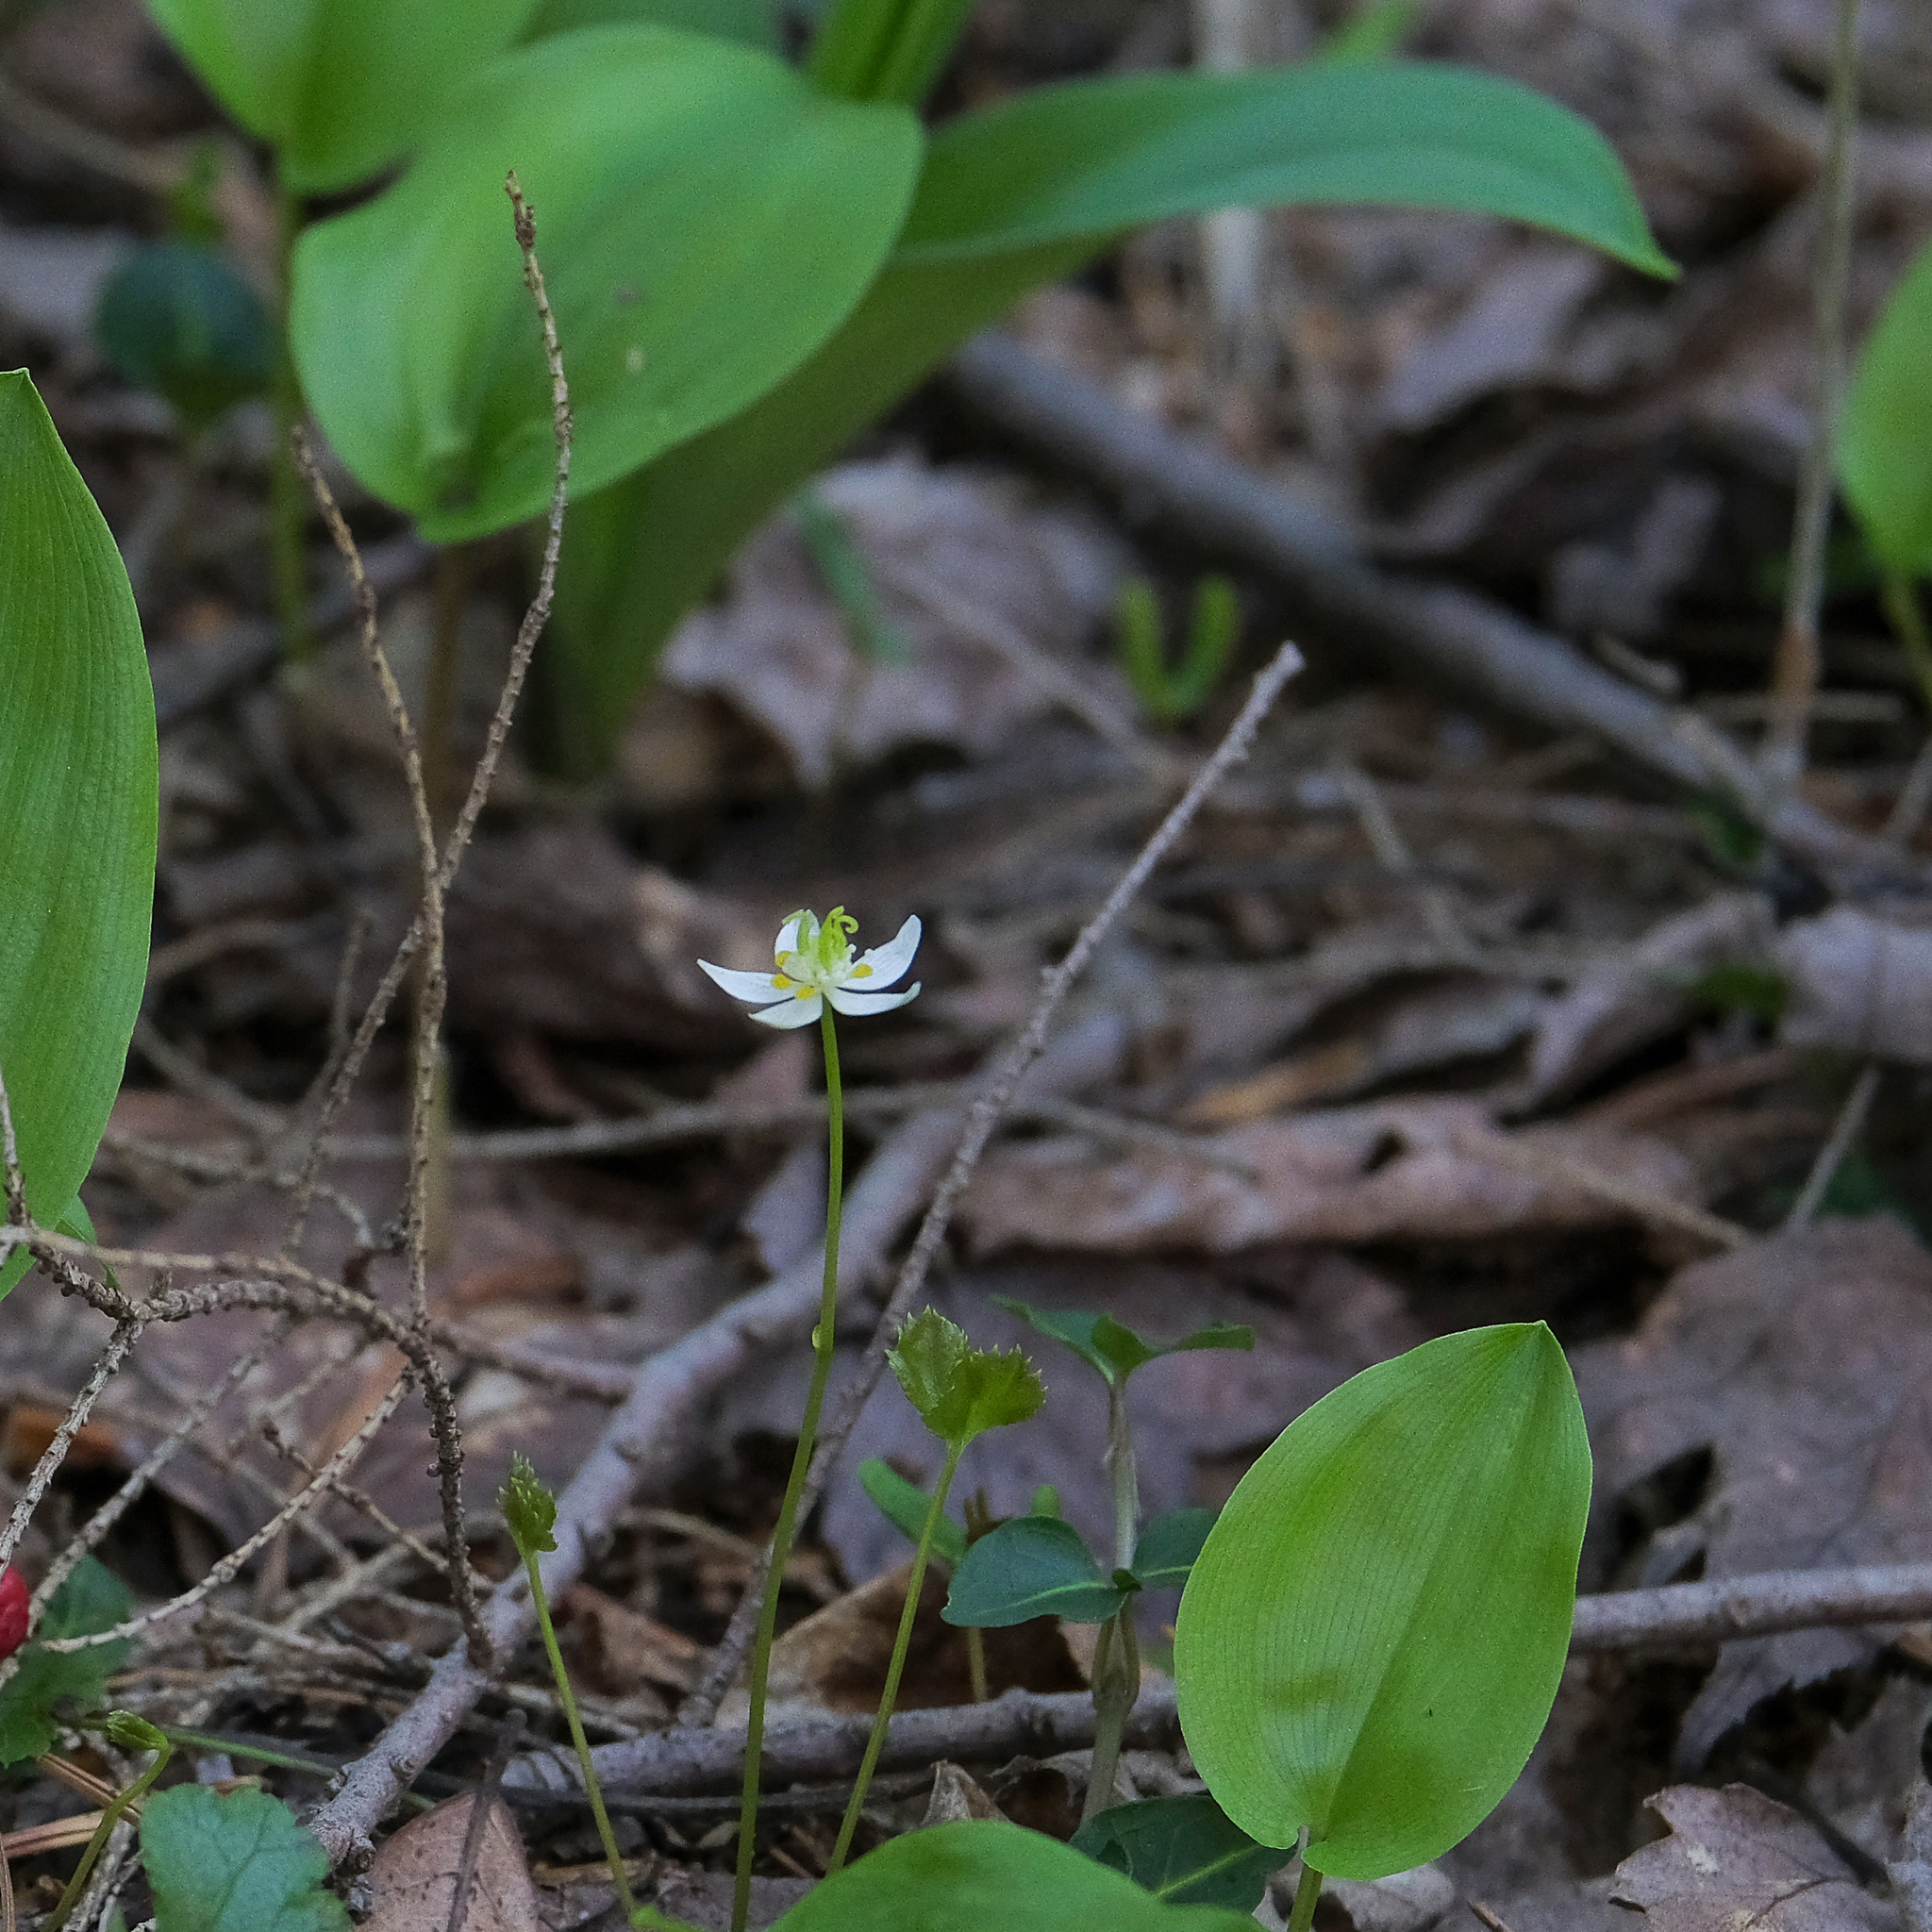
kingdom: Plantae
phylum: Tracheophyta
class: Magnoliopsida
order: Ranunculales
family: Ranunculaceae
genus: Coptis
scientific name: Coptis trifolia
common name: Canker-root
